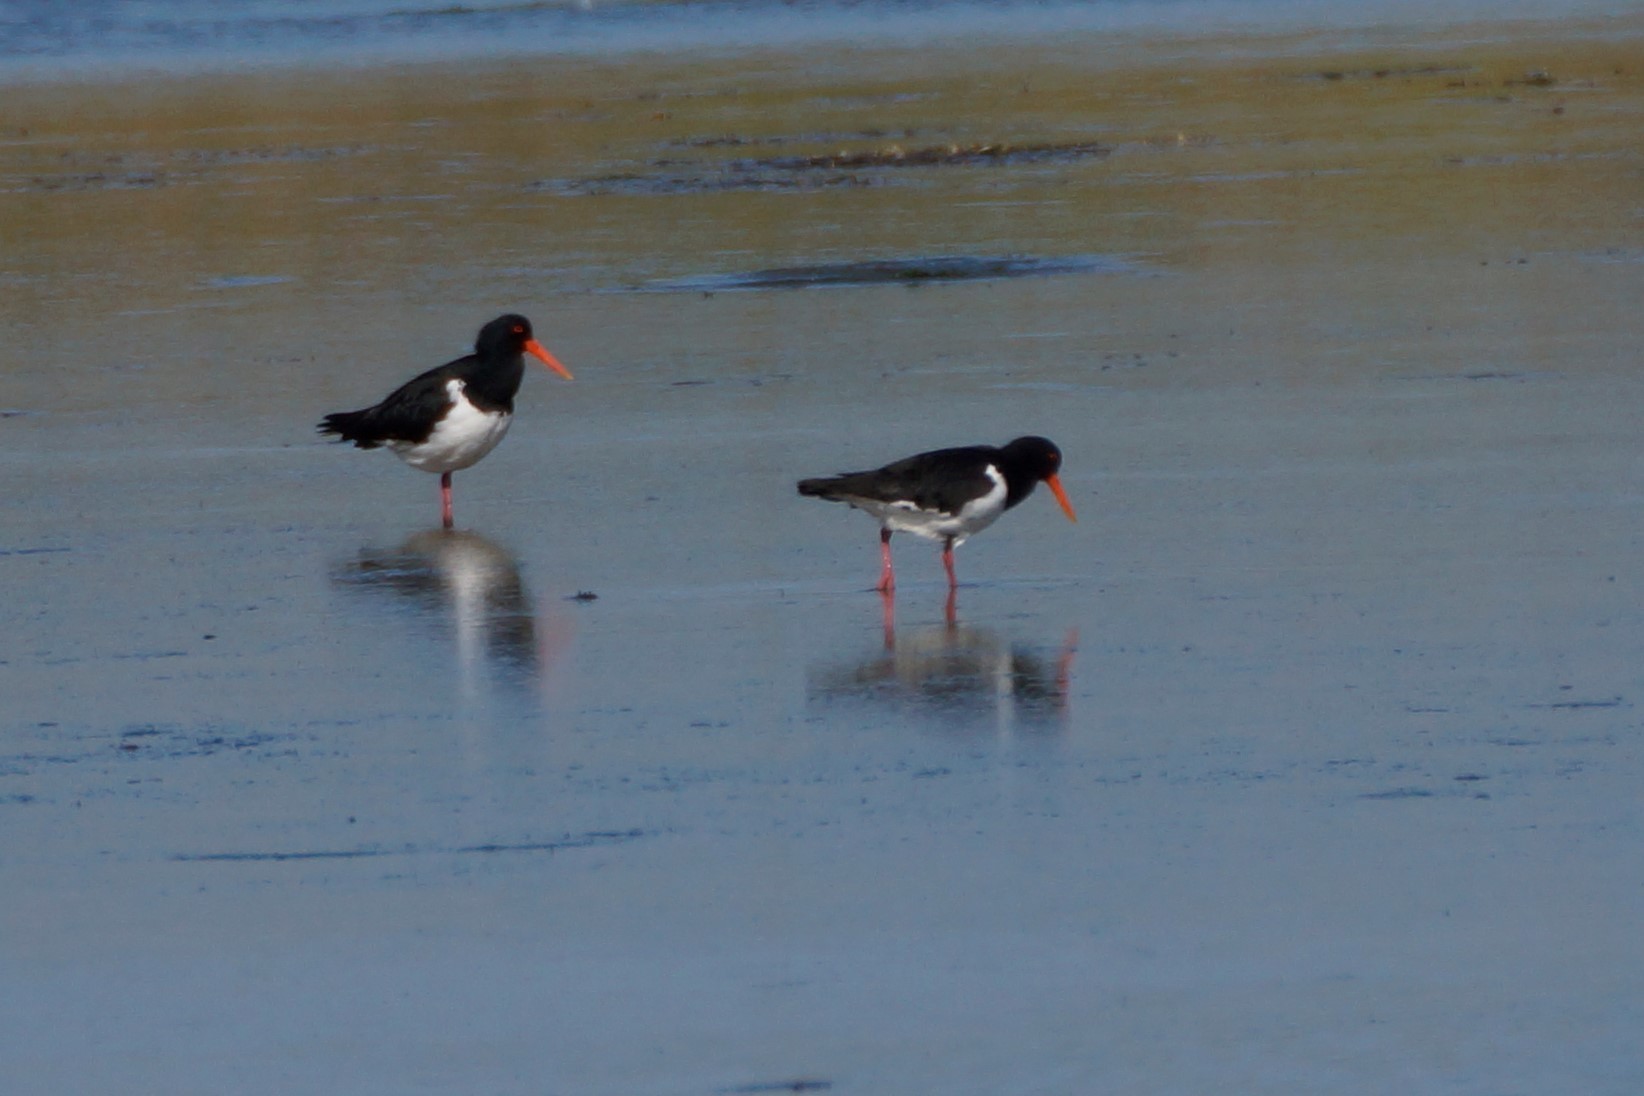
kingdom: Animalia
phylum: Chordata
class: Aves
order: Charadriiformes
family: Haematopodidae
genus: Haematopus
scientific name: Haematopus longirostris
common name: Pied oystercatcher
